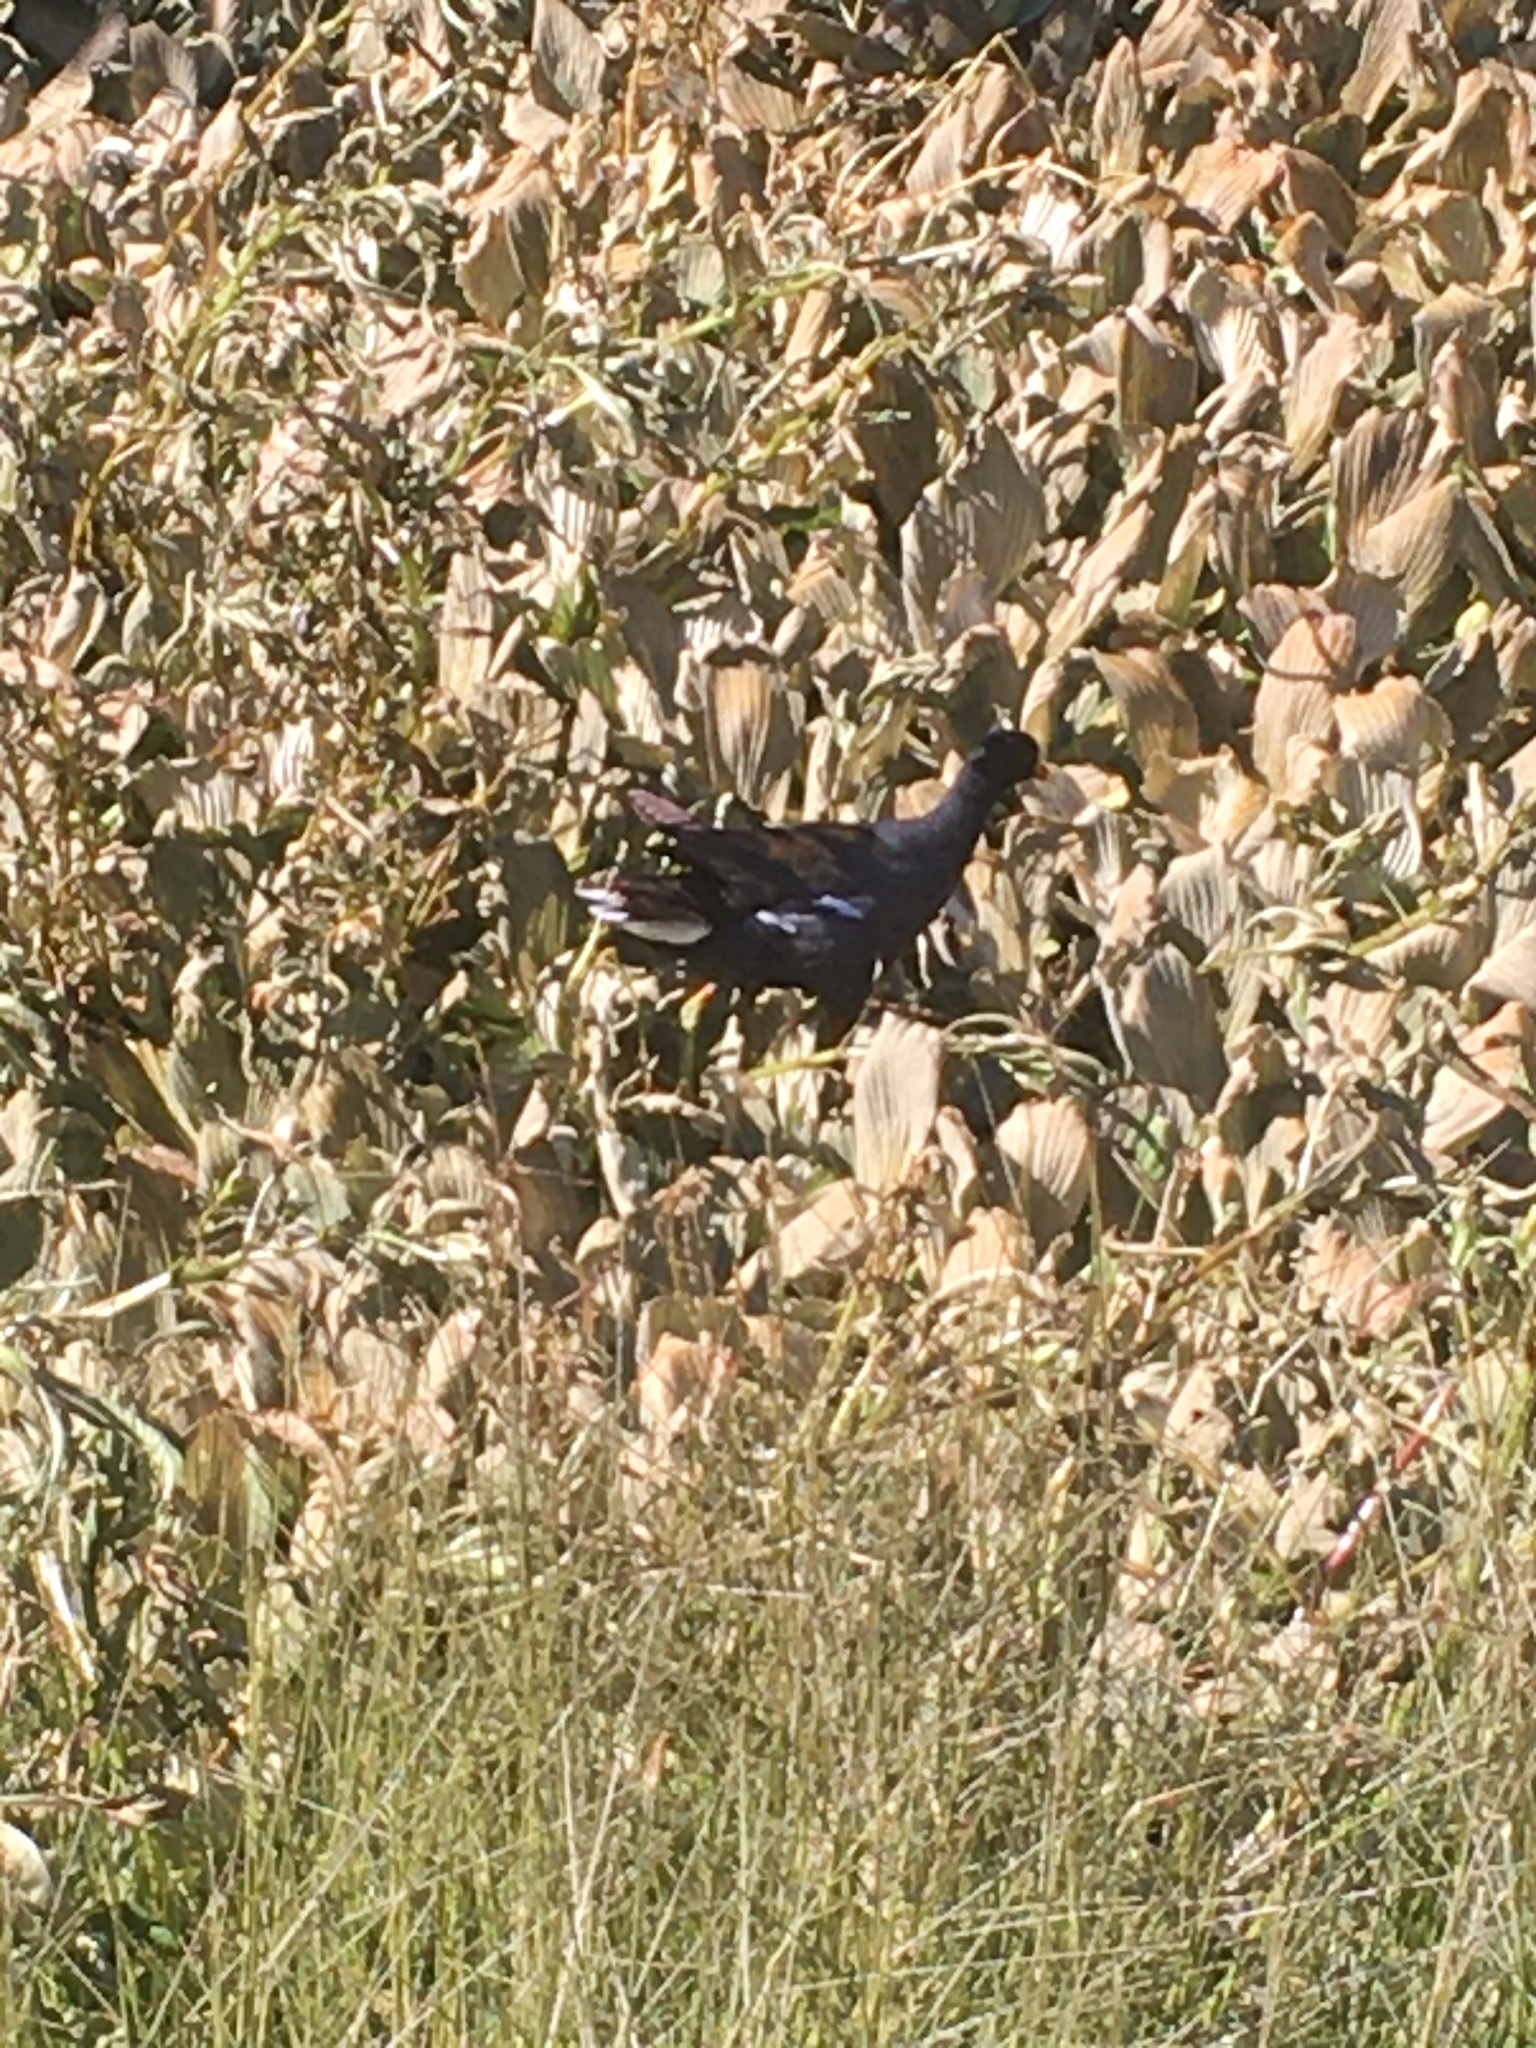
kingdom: Animalia
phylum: Chordata
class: Aves
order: Gruiformes
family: Rallidae
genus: Gallinula
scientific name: Gallinula chloropus
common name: Common moorhen
